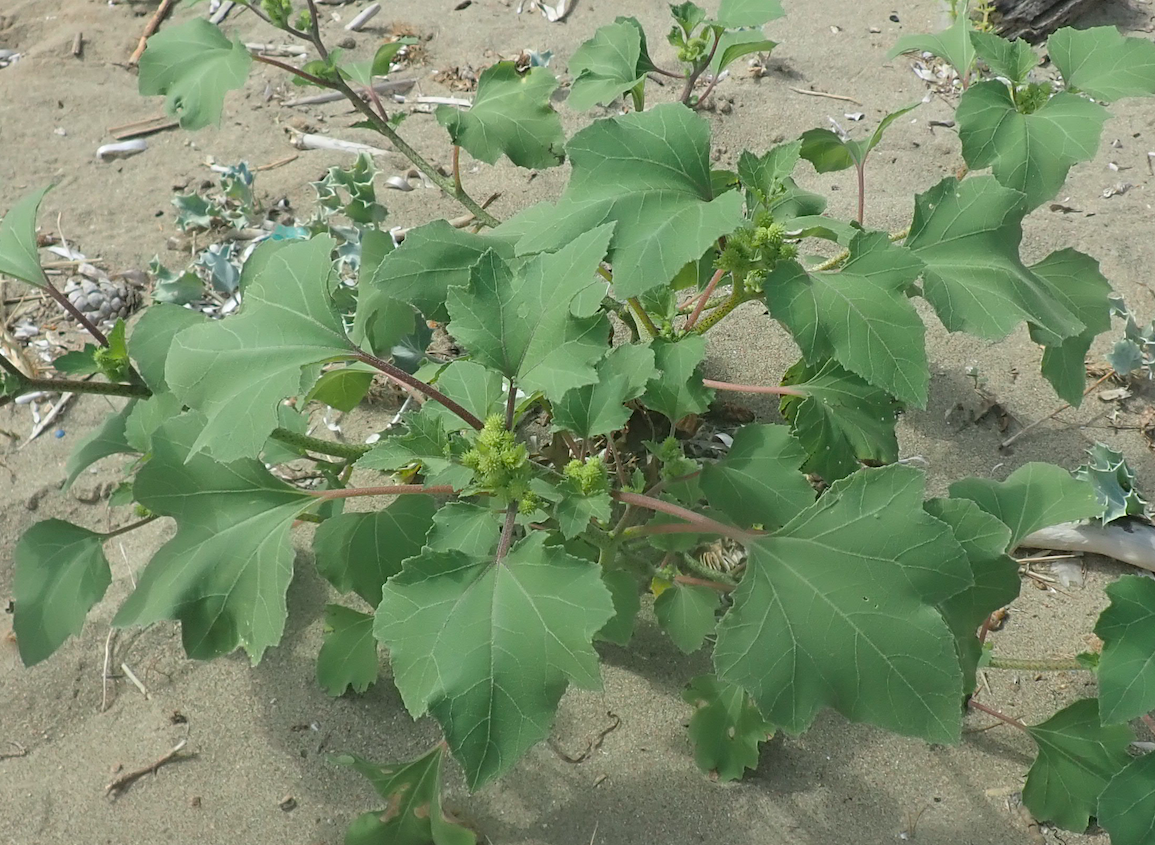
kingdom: Plantae
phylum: Tracheophyta
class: Magnoliopsida
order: Asterales
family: Asteraceae
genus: Xanthium
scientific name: Xanthium strumarium
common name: Rough cocklebur
